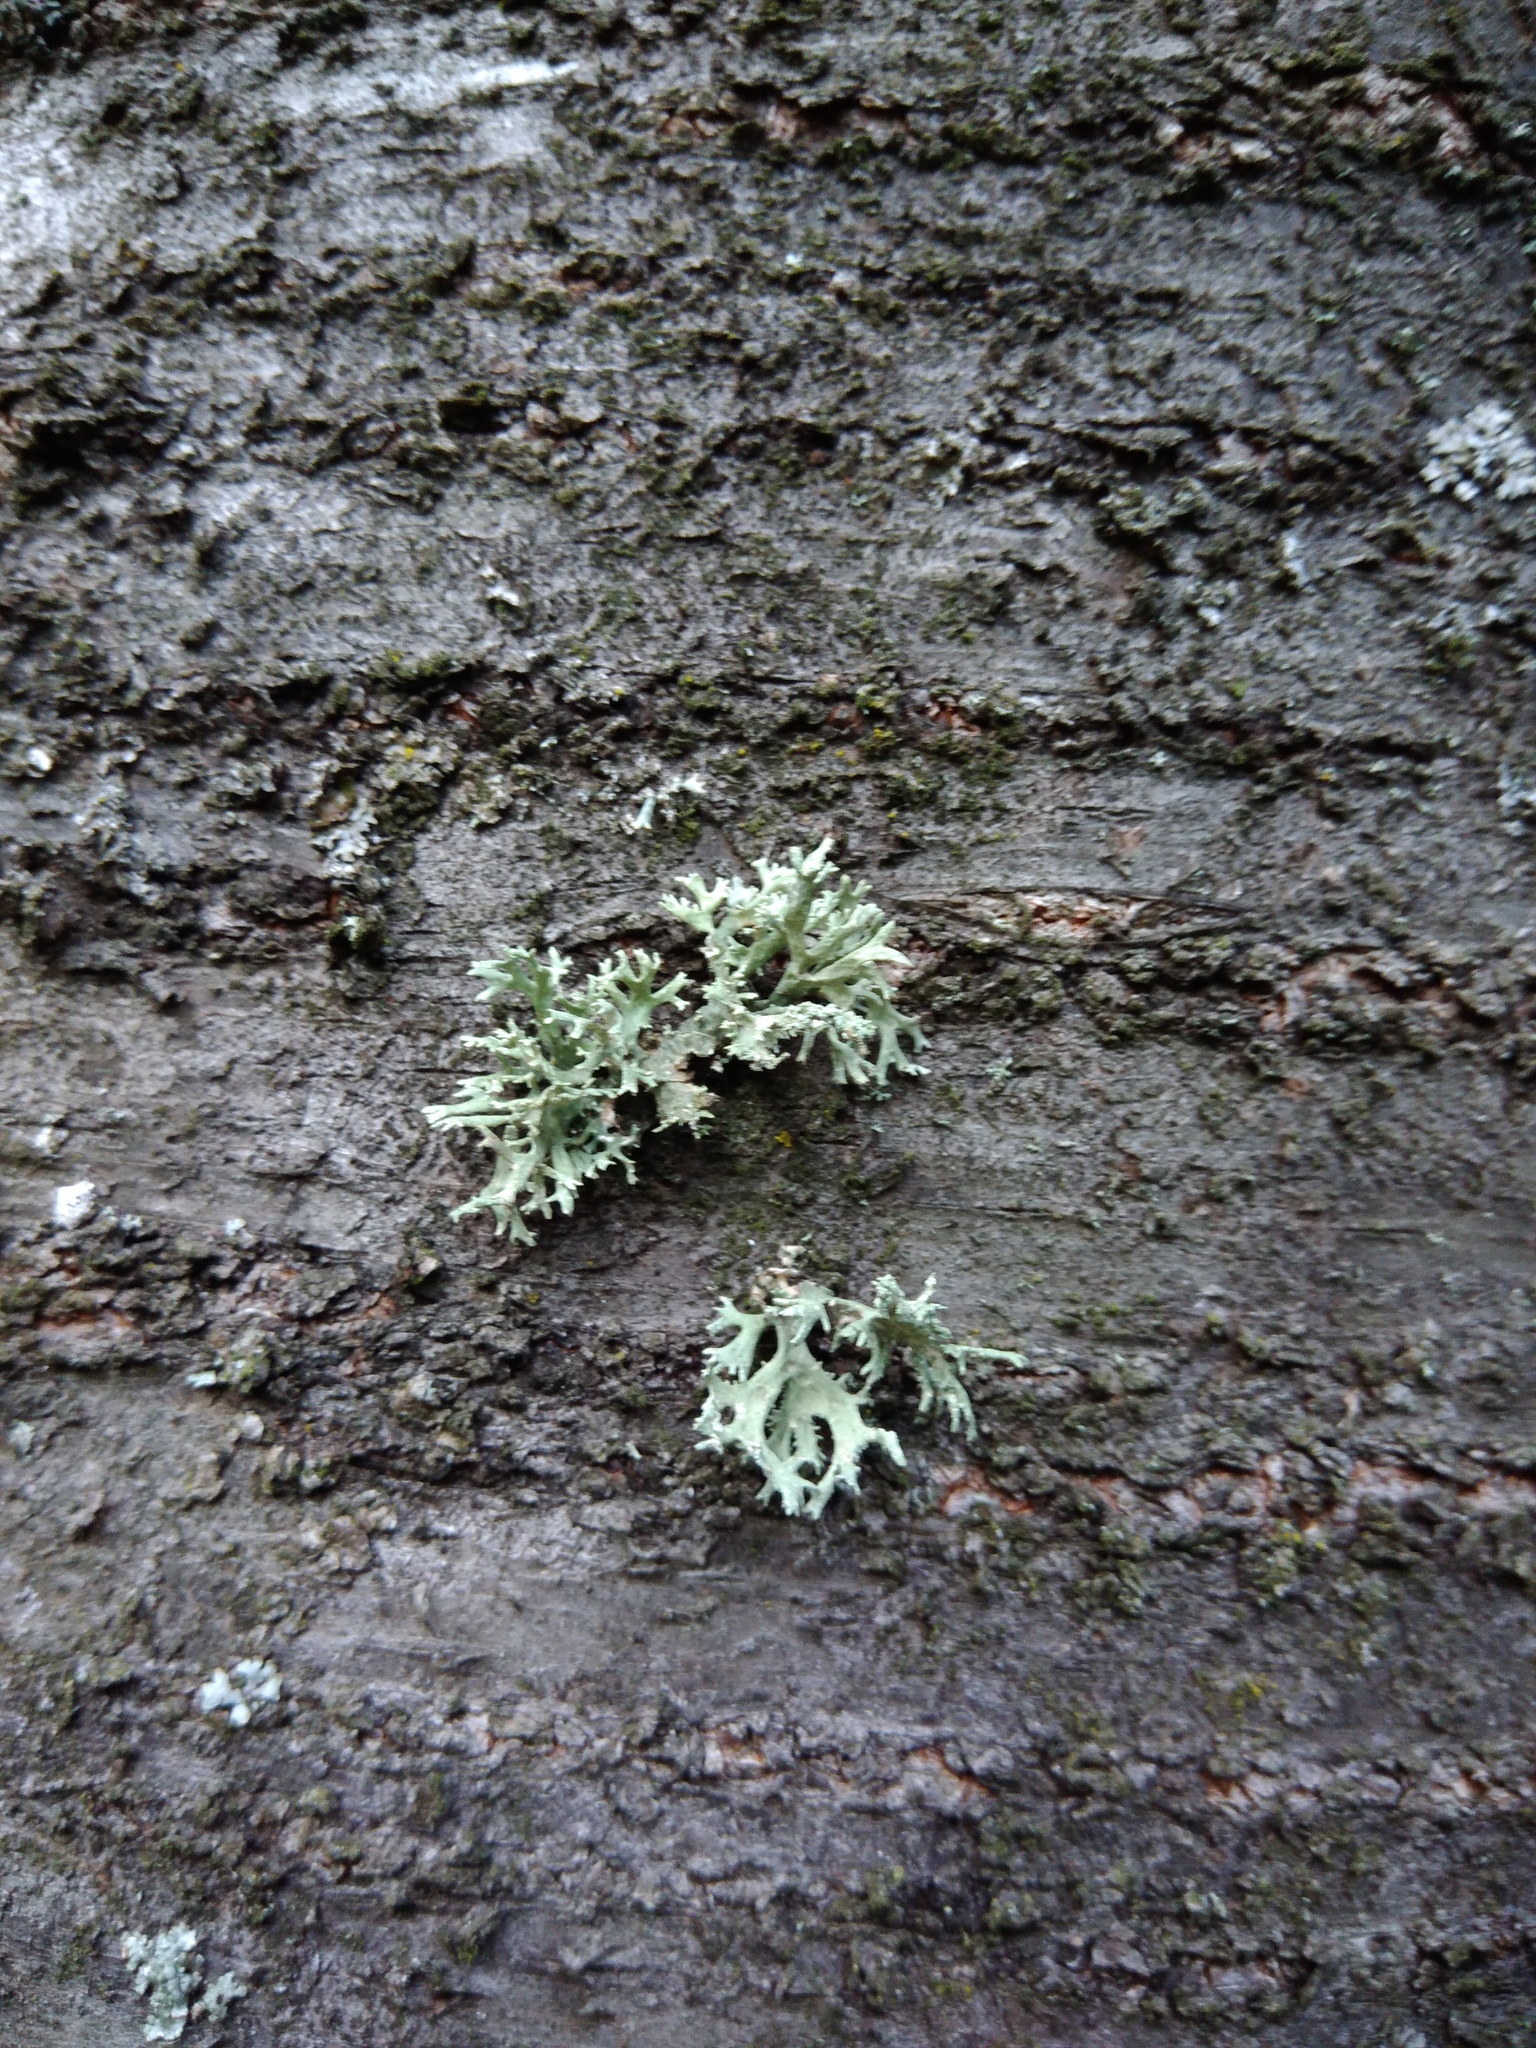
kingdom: Fungi
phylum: Ascomycota
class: Lecanoromycetes
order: Lecanorales
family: Parmeliaceae
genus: Evernia
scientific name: Evernia prunastri
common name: Oak moss
